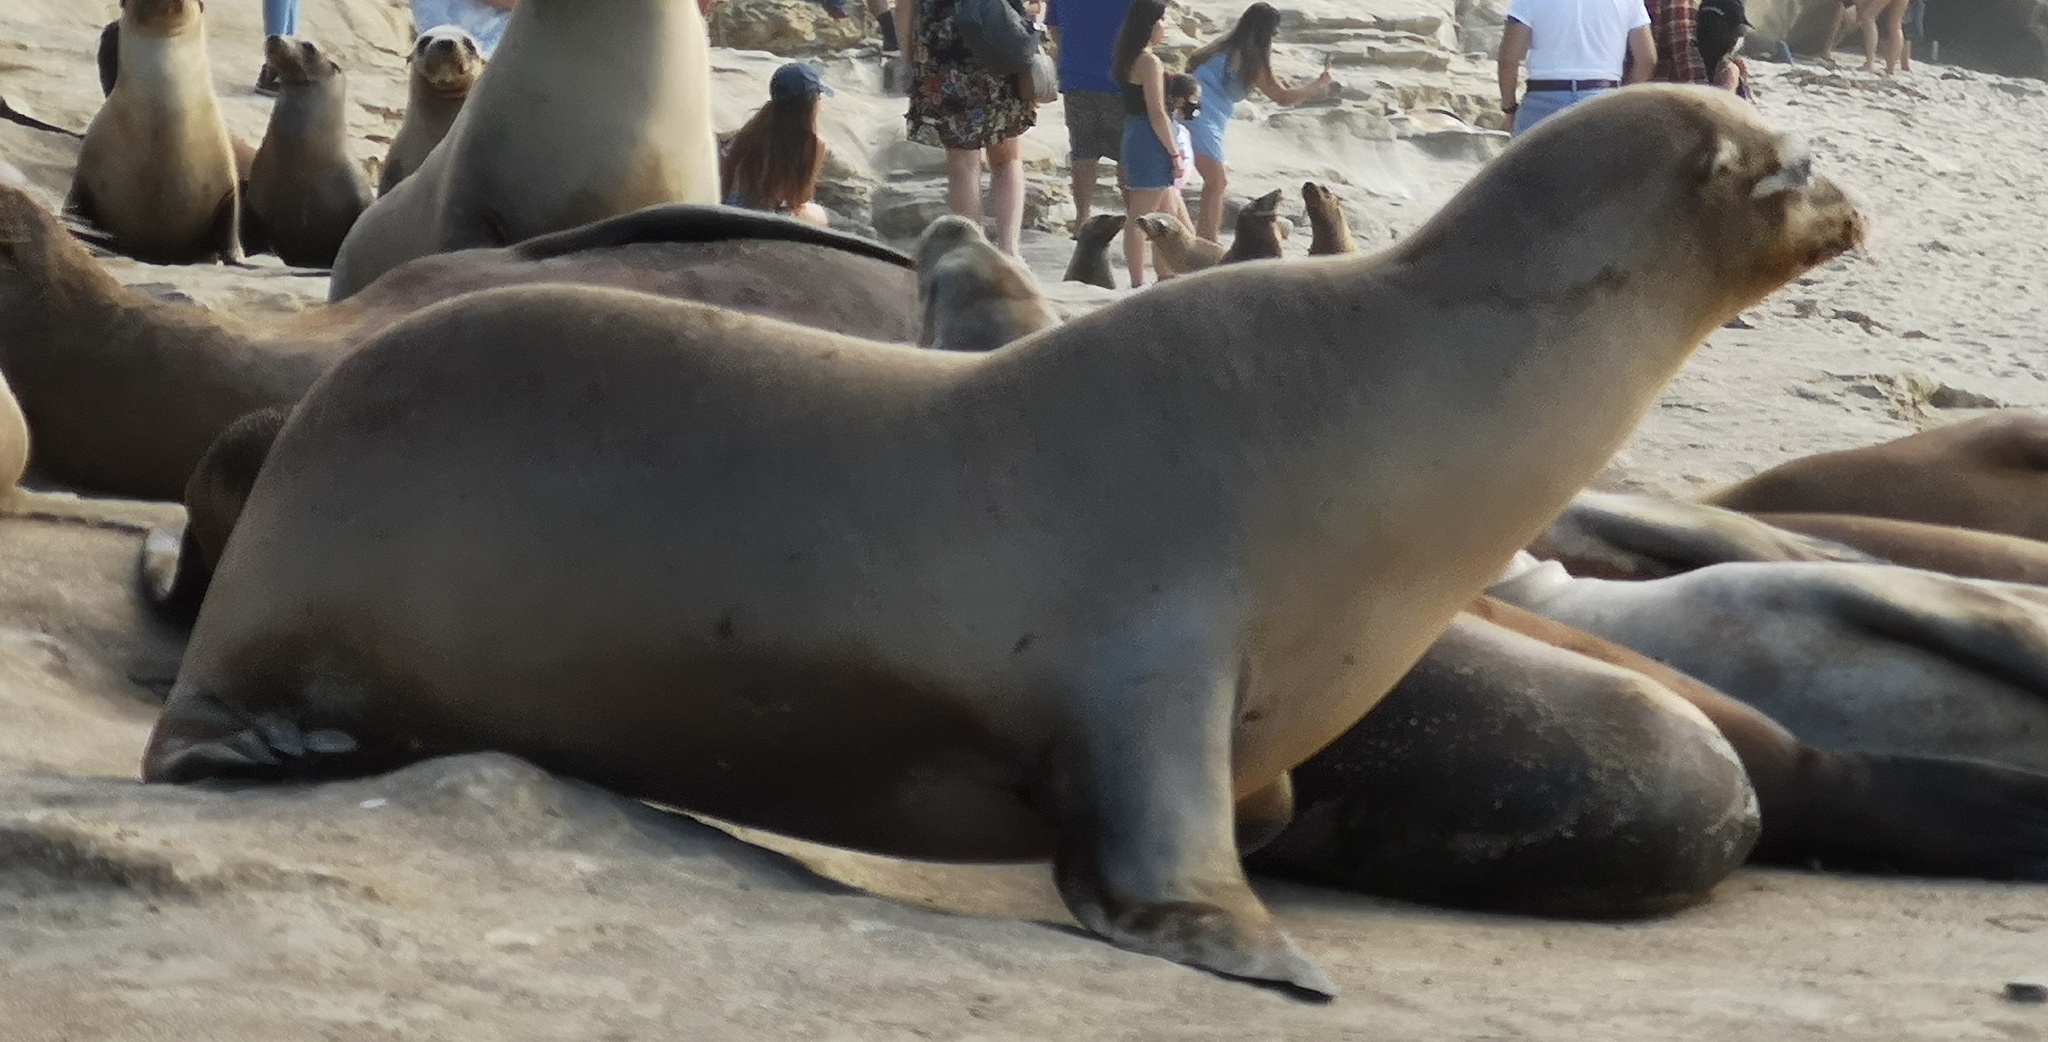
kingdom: Animalia
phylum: Chordata
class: Mammalia
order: Carnivora
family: Otariidae
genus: Zalophus
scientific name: Zalophus californianus
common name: California sea lion
